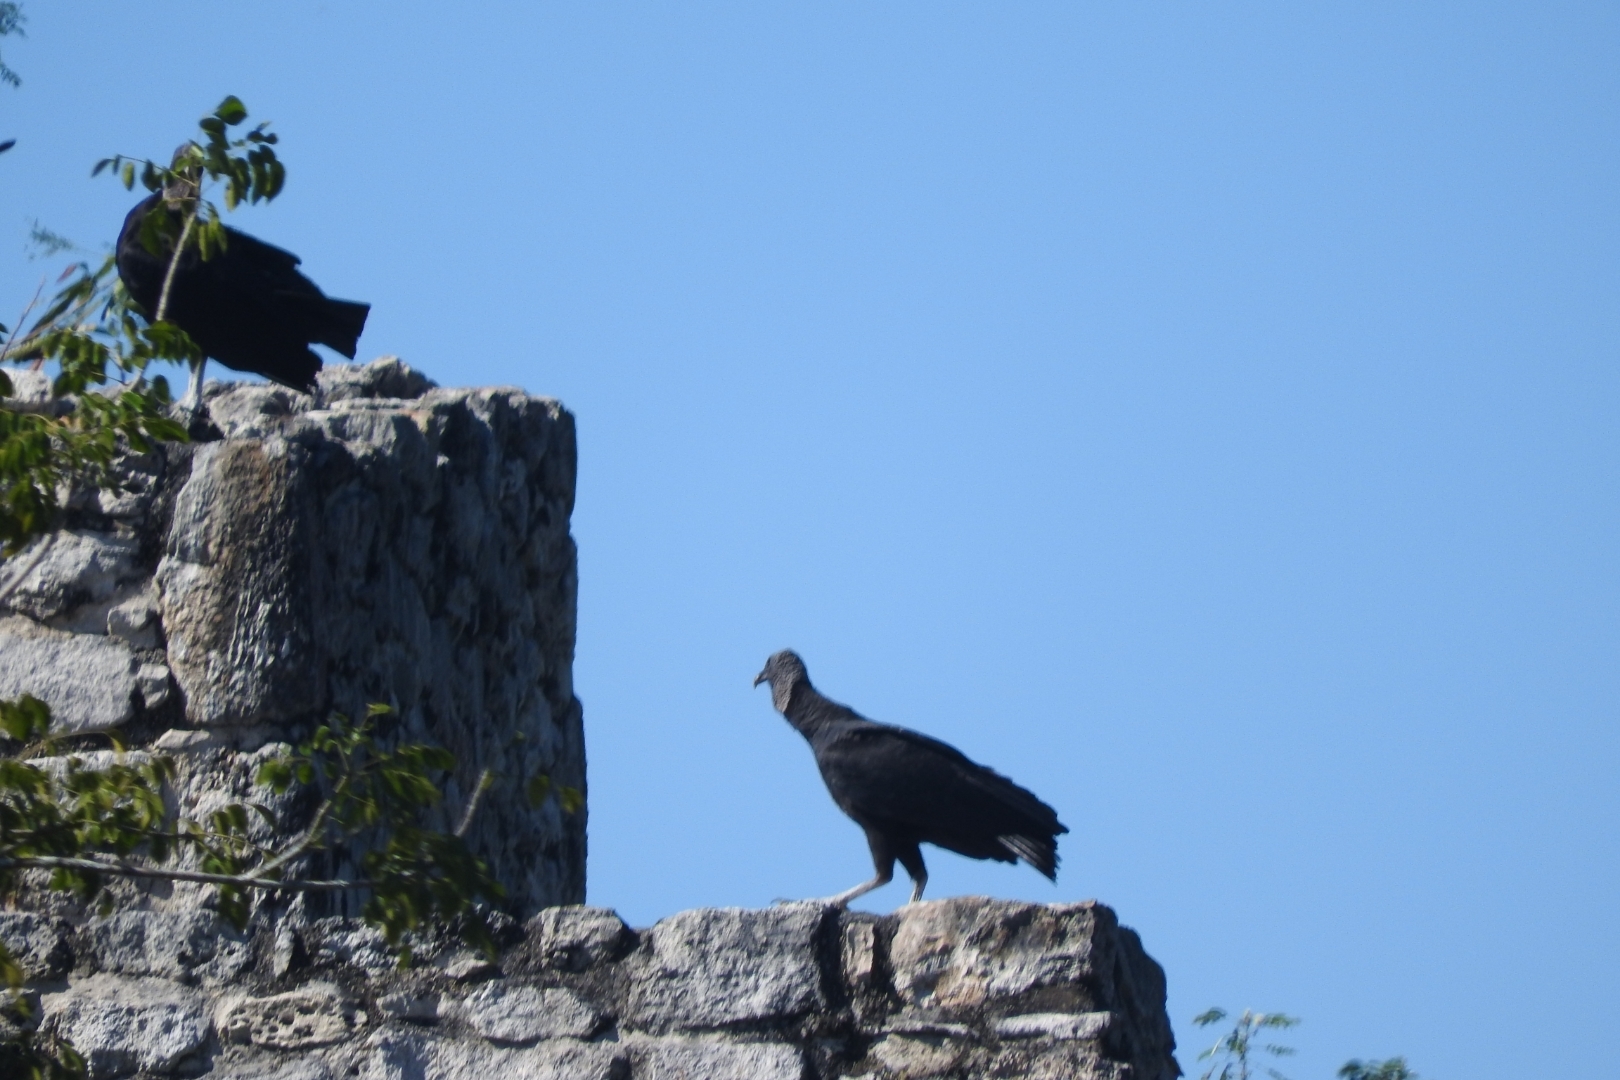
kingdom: Animalia
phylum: Chordata
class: Aves
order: Accipitriformes
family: Cathartidae
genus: Coragyps
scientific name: Coragyps atratus
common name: Black vulture
